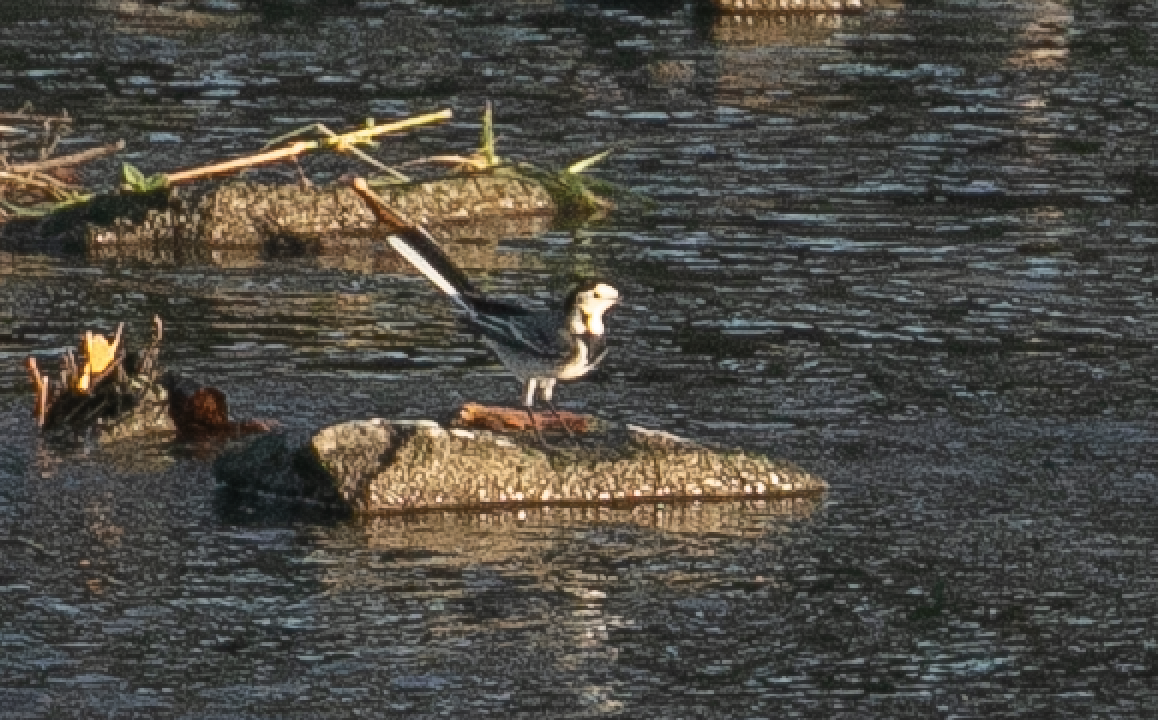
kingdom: Animalia
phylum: Chordata
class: Aves
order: Passeriformes
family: Motacillidae
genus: Motacilla
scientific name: Motacilla alba
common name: White wagtail
